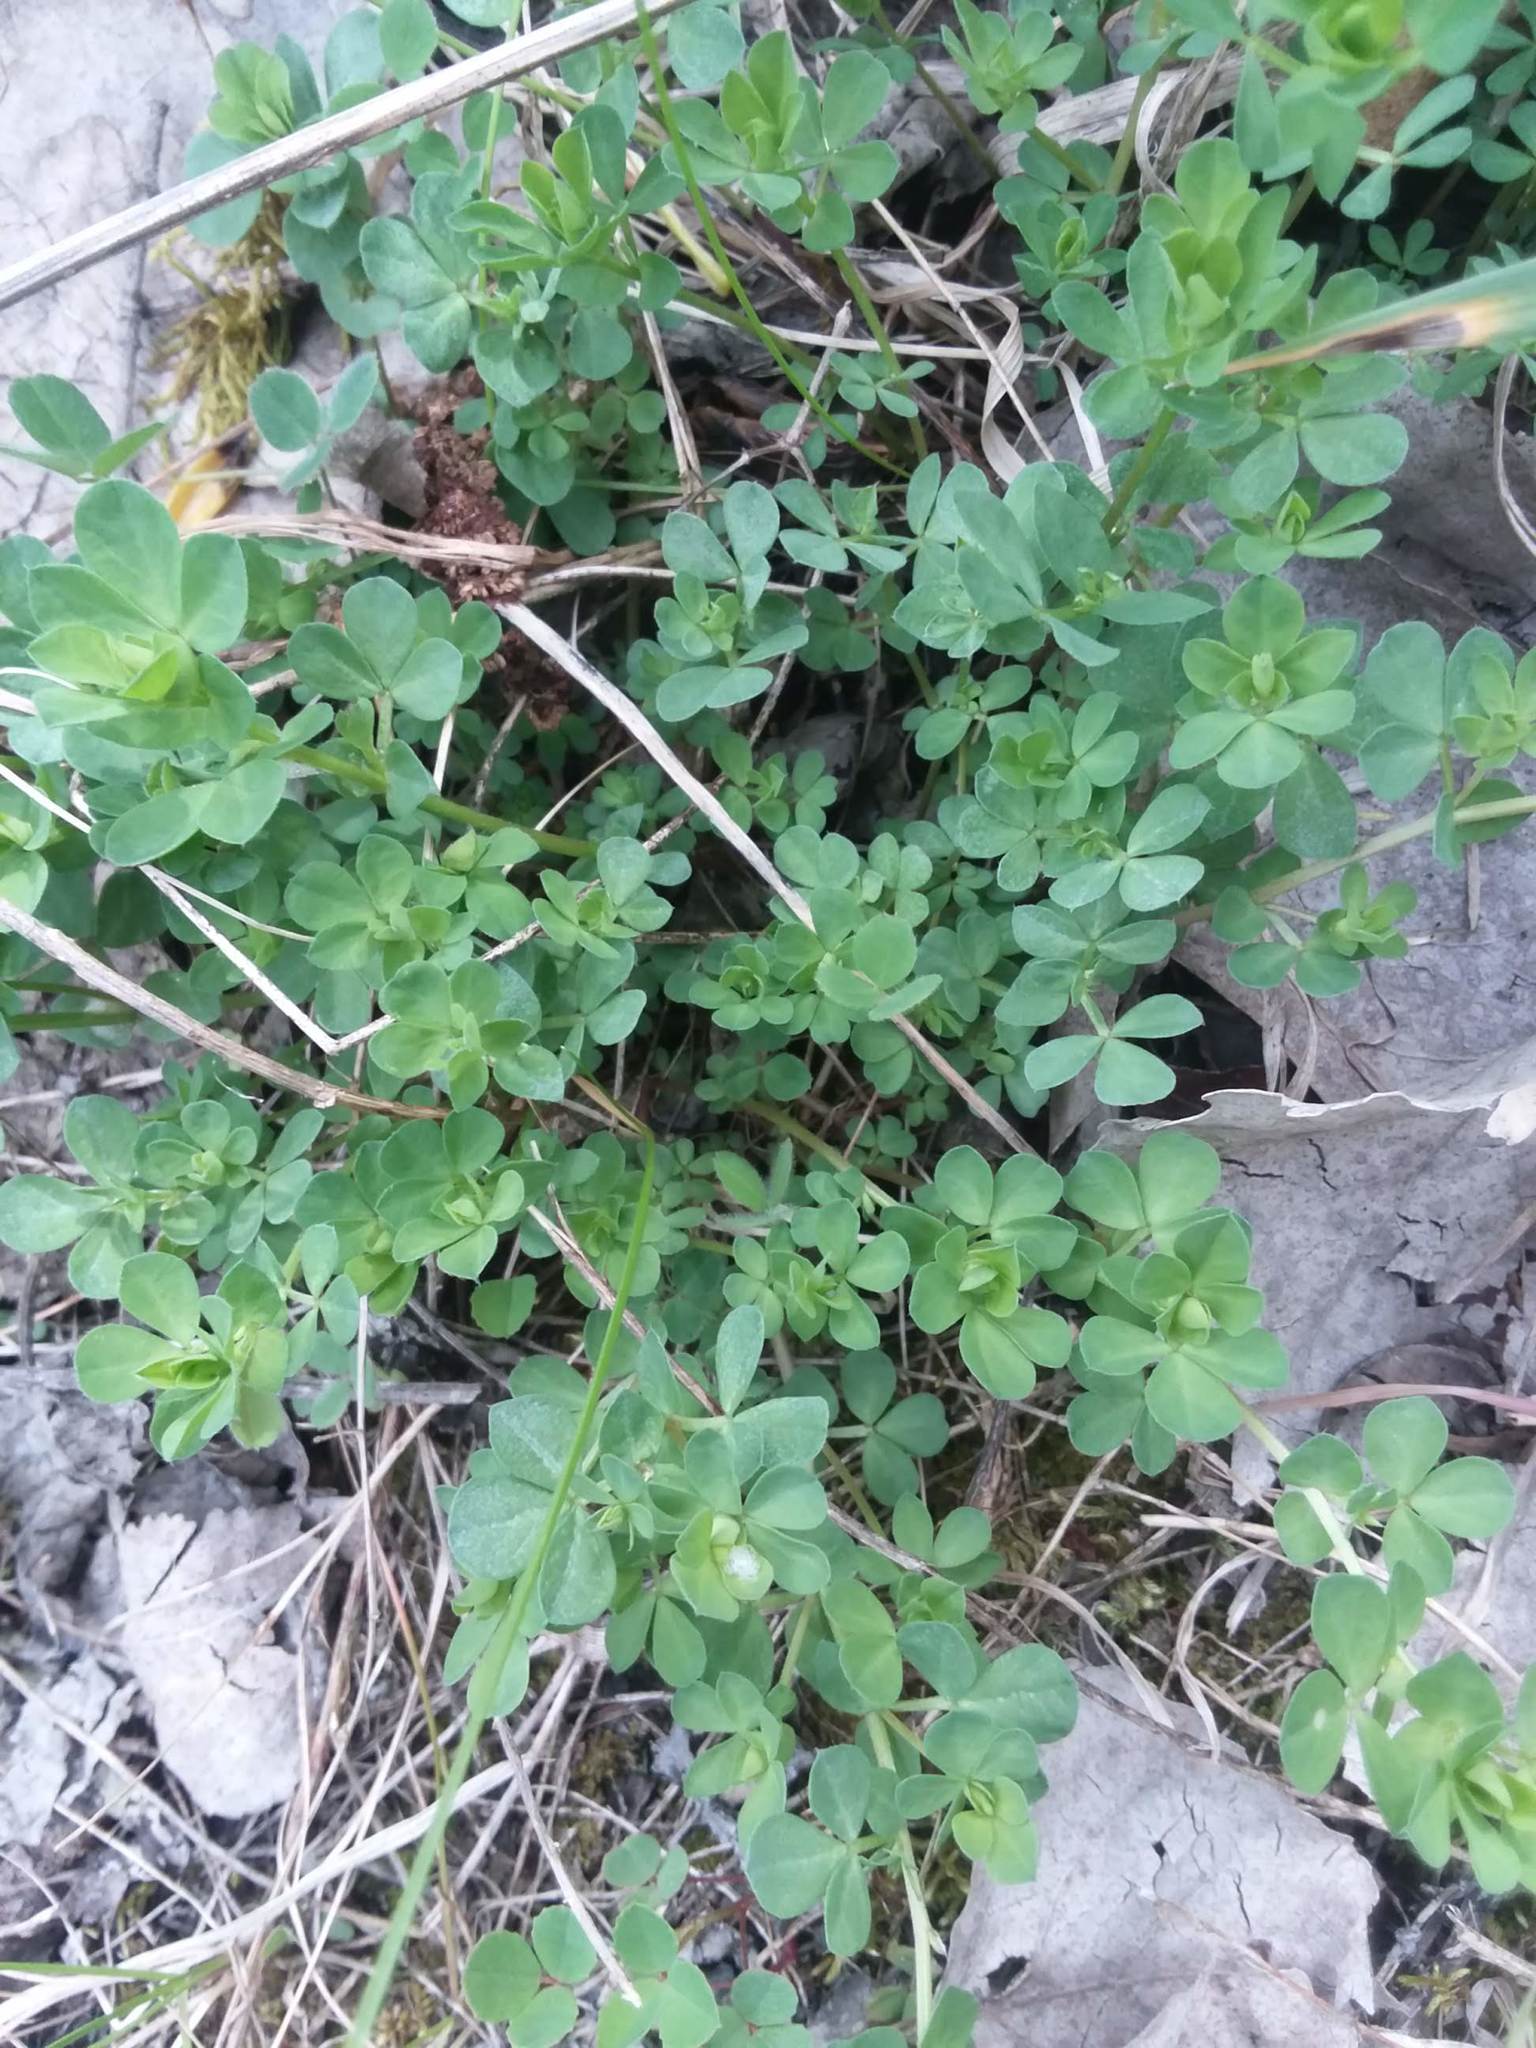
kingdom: Plantae
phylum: Tracheophyta
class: Magnoliopsida
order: Fabales
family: Fabaceae
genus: Lotus
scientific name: Lotus corniculatus
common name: Common bird's-foot-trefoil
